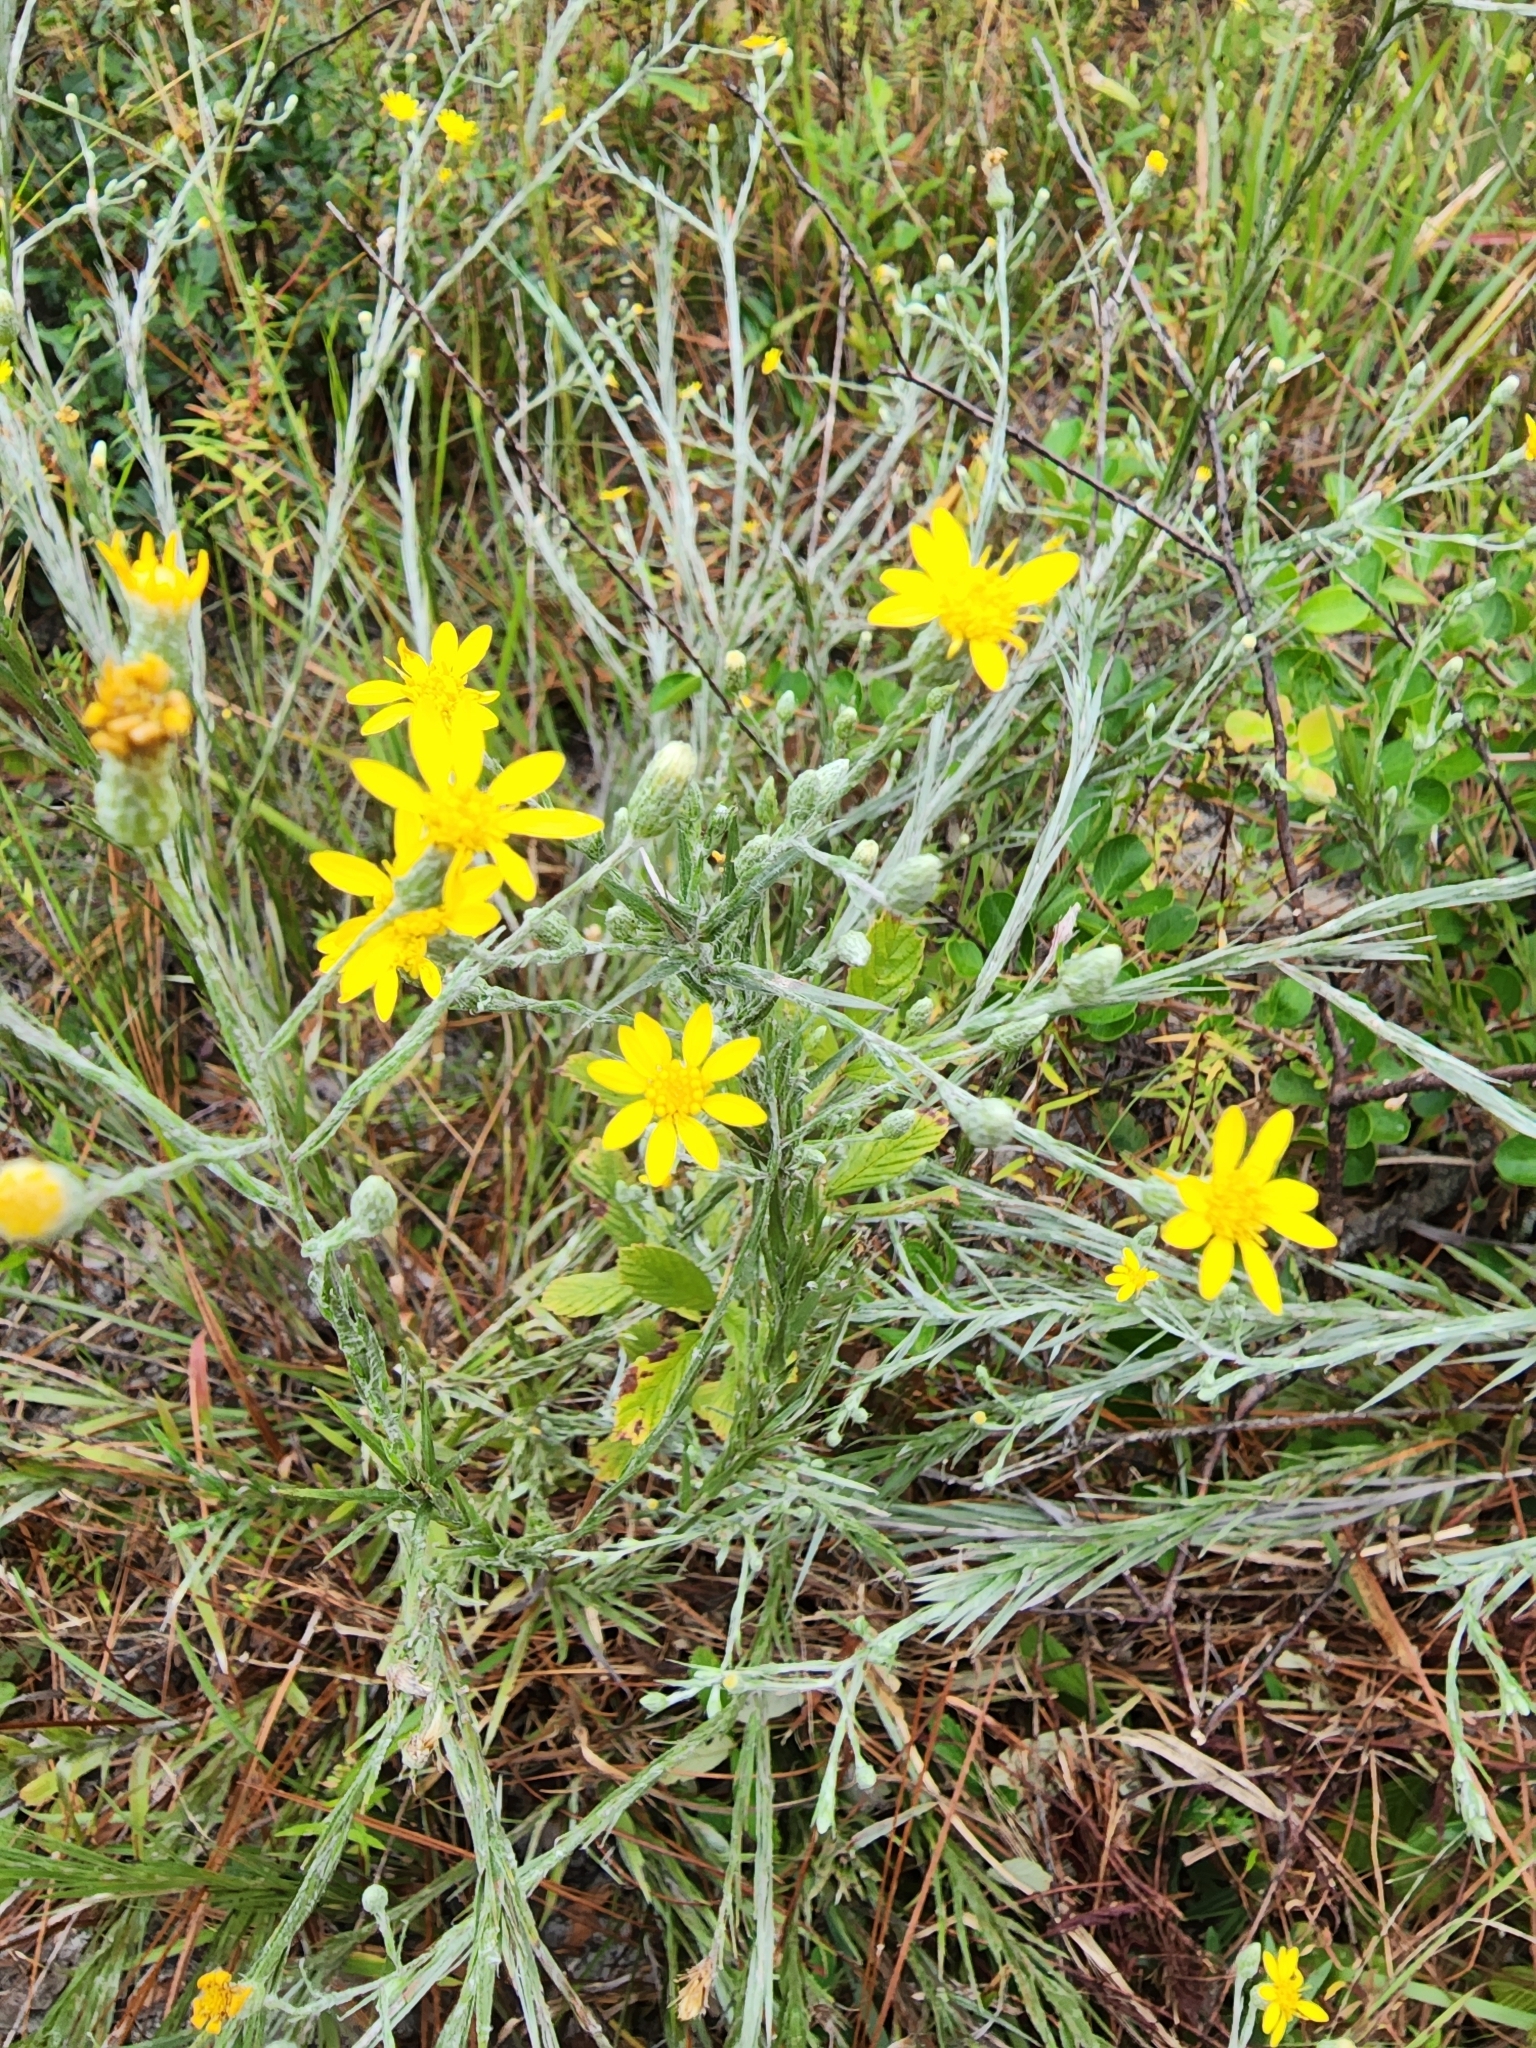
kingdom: Plantae
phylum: Tracheophyta
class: Magnoliopsida
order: Asterales
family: Asteraceae
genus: Pityopsis
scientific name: Pityopsis graminifolia
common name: Grass-leaf golden-aster
